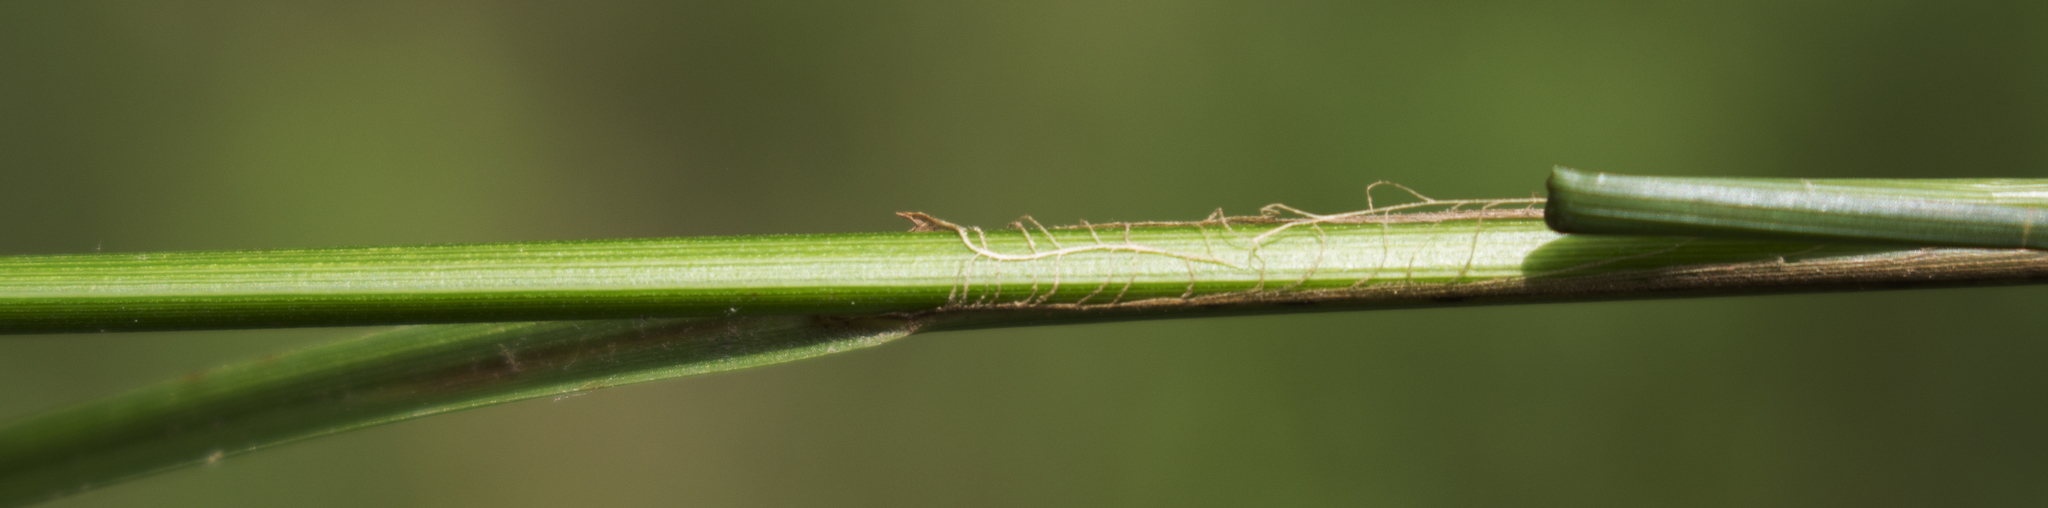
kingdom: Plantae
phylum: Tracheophyta
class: Liliopsida
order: Poales
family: Cyperaceae
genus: Carex
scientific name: Carex pellita
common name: Woolly sedge
